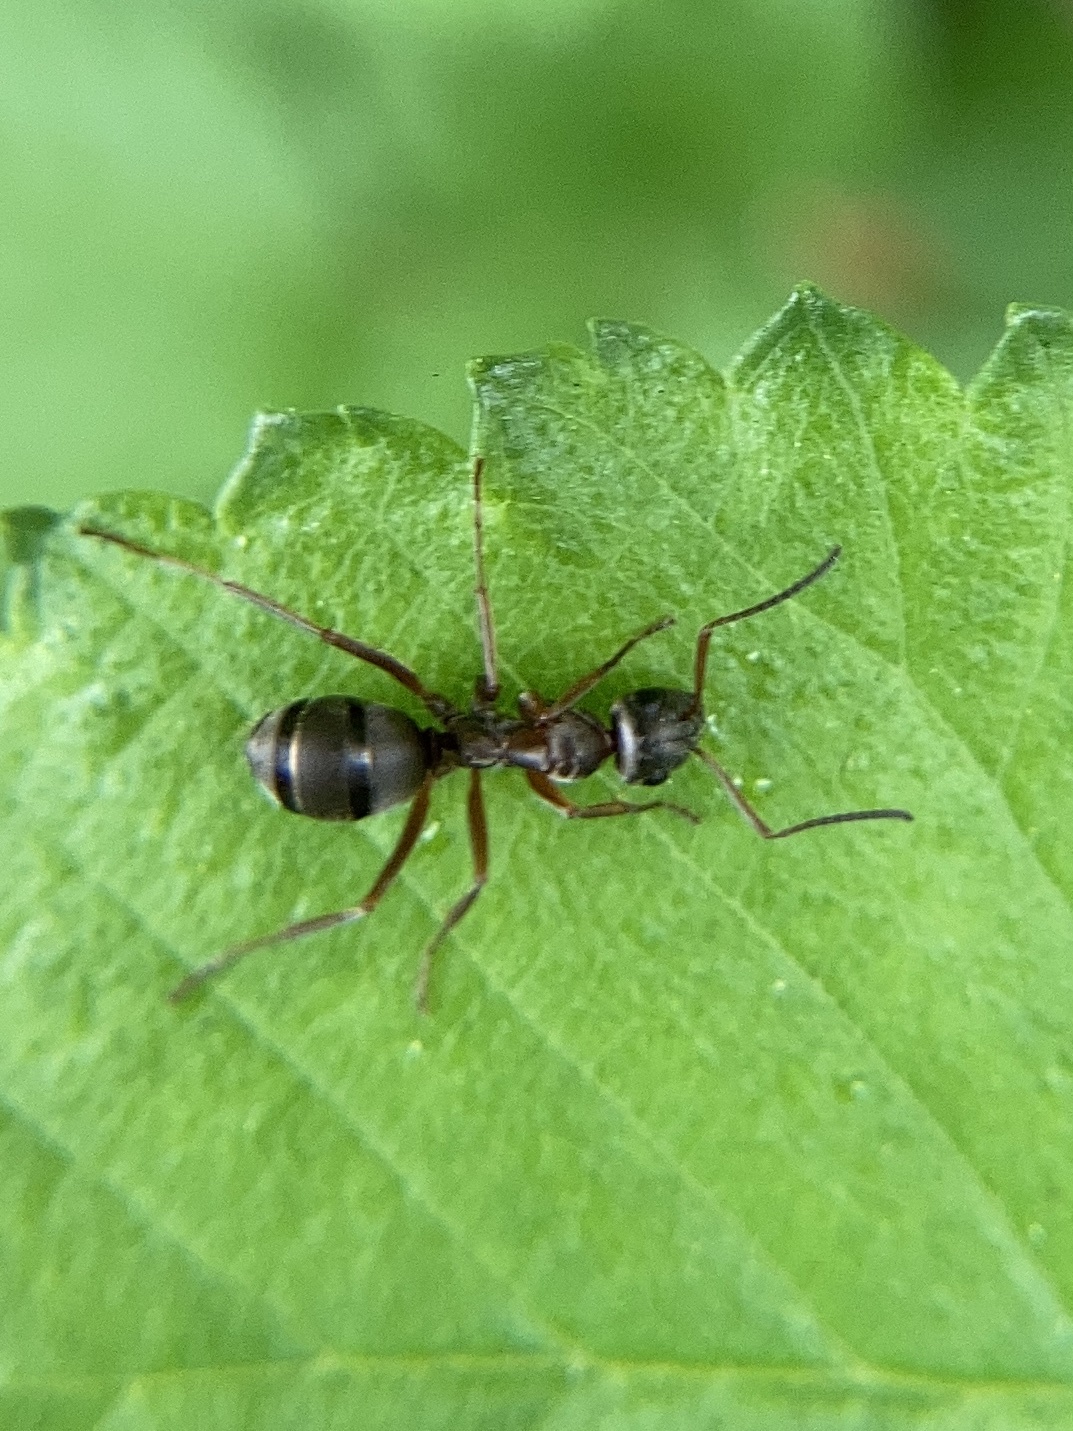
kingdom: Animalia
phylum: Arthropoda
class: Insecta
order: Hymenoptera
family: Formicidae
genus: Formica
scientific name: Formica cunicularia
